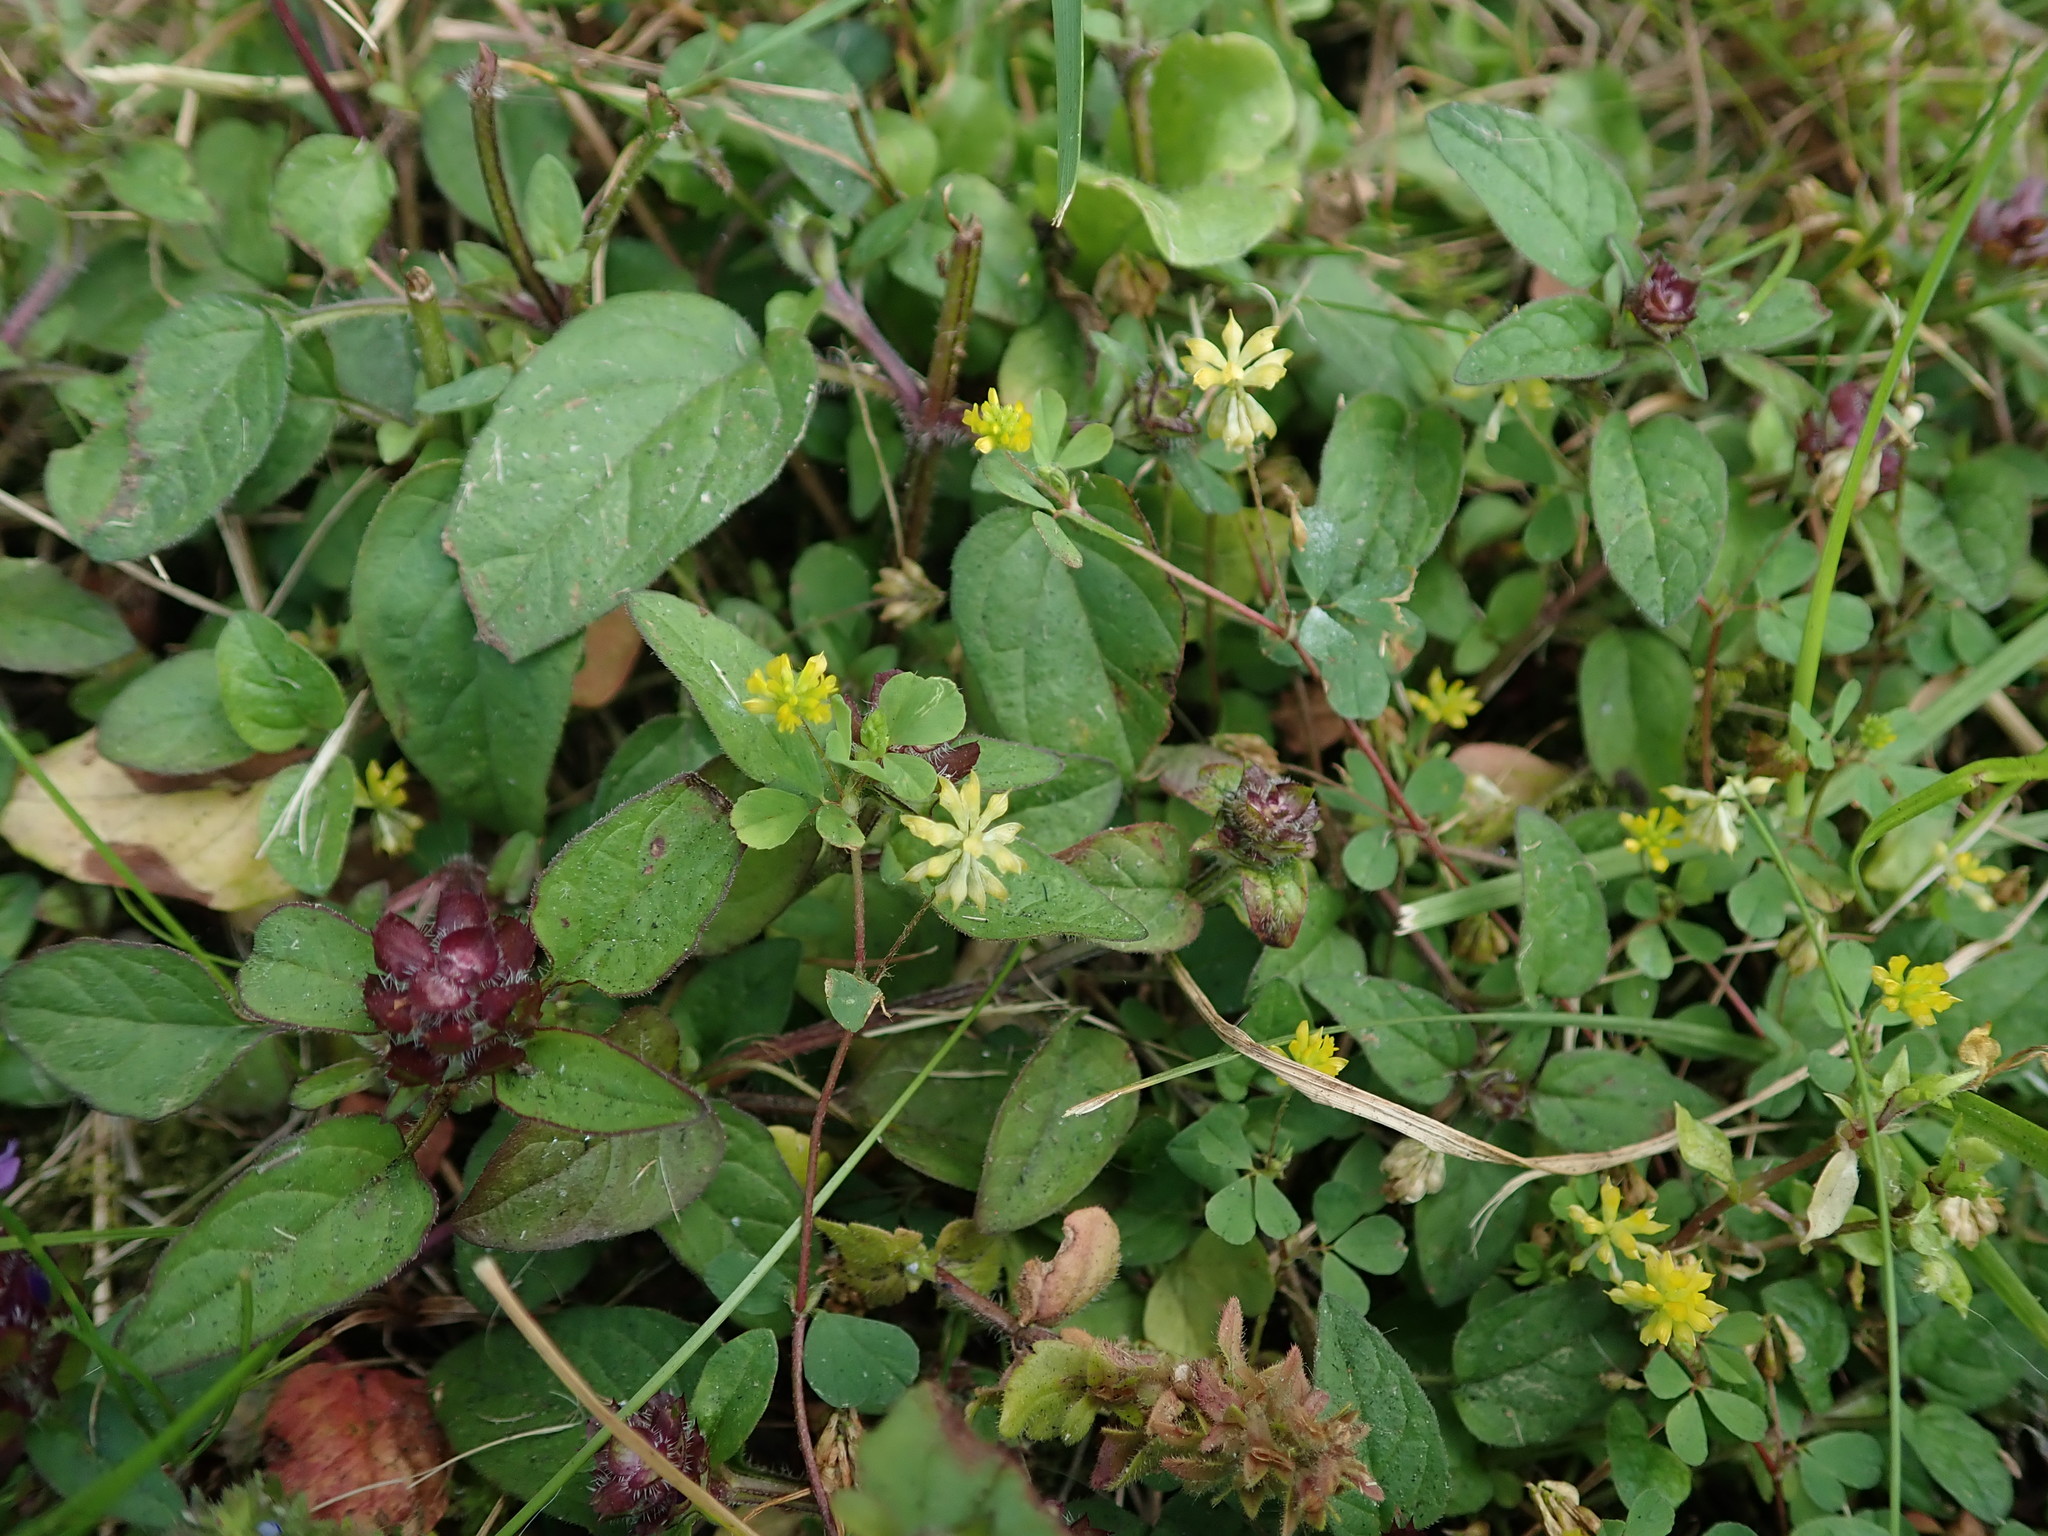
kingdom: Plantae
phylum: Tracheophyta
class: Magnoliopsida
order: Fabales
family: Fabaceae
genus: Trifolium
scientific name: Trifolium dubium
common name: Suckling clover
